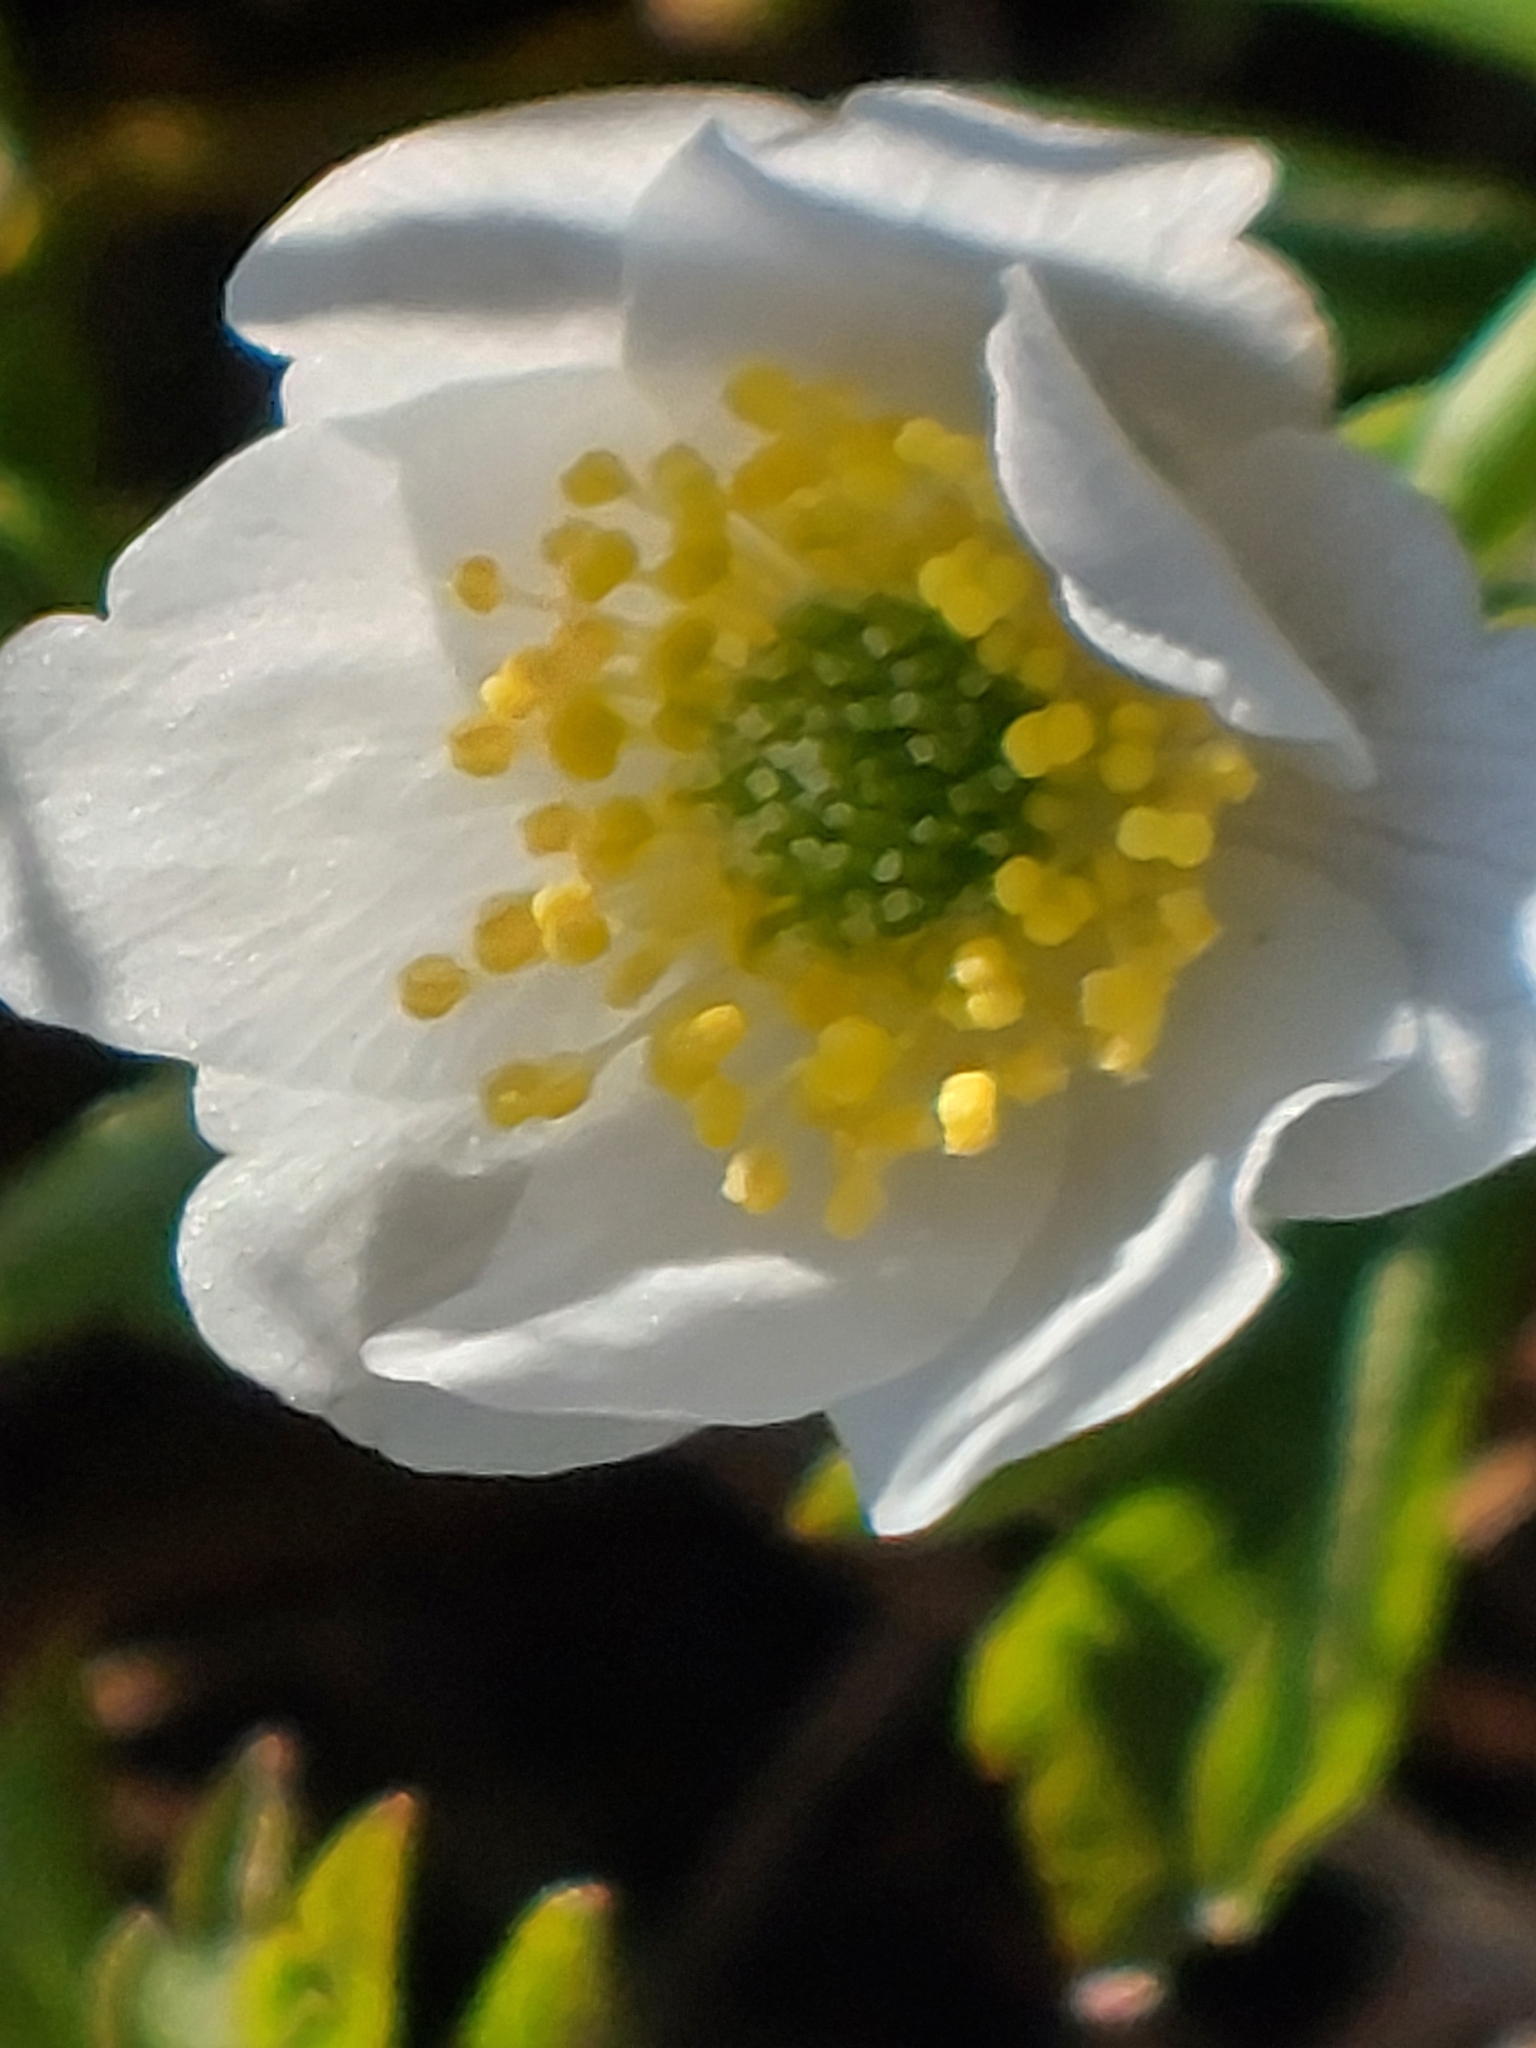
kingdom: Plantae
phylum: Tracheophyta
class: Magnoliopsida
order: Ranunculales
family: Ranunculaceae
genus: Anemone
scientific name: Anemone nemorosa
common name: Wood anemone
